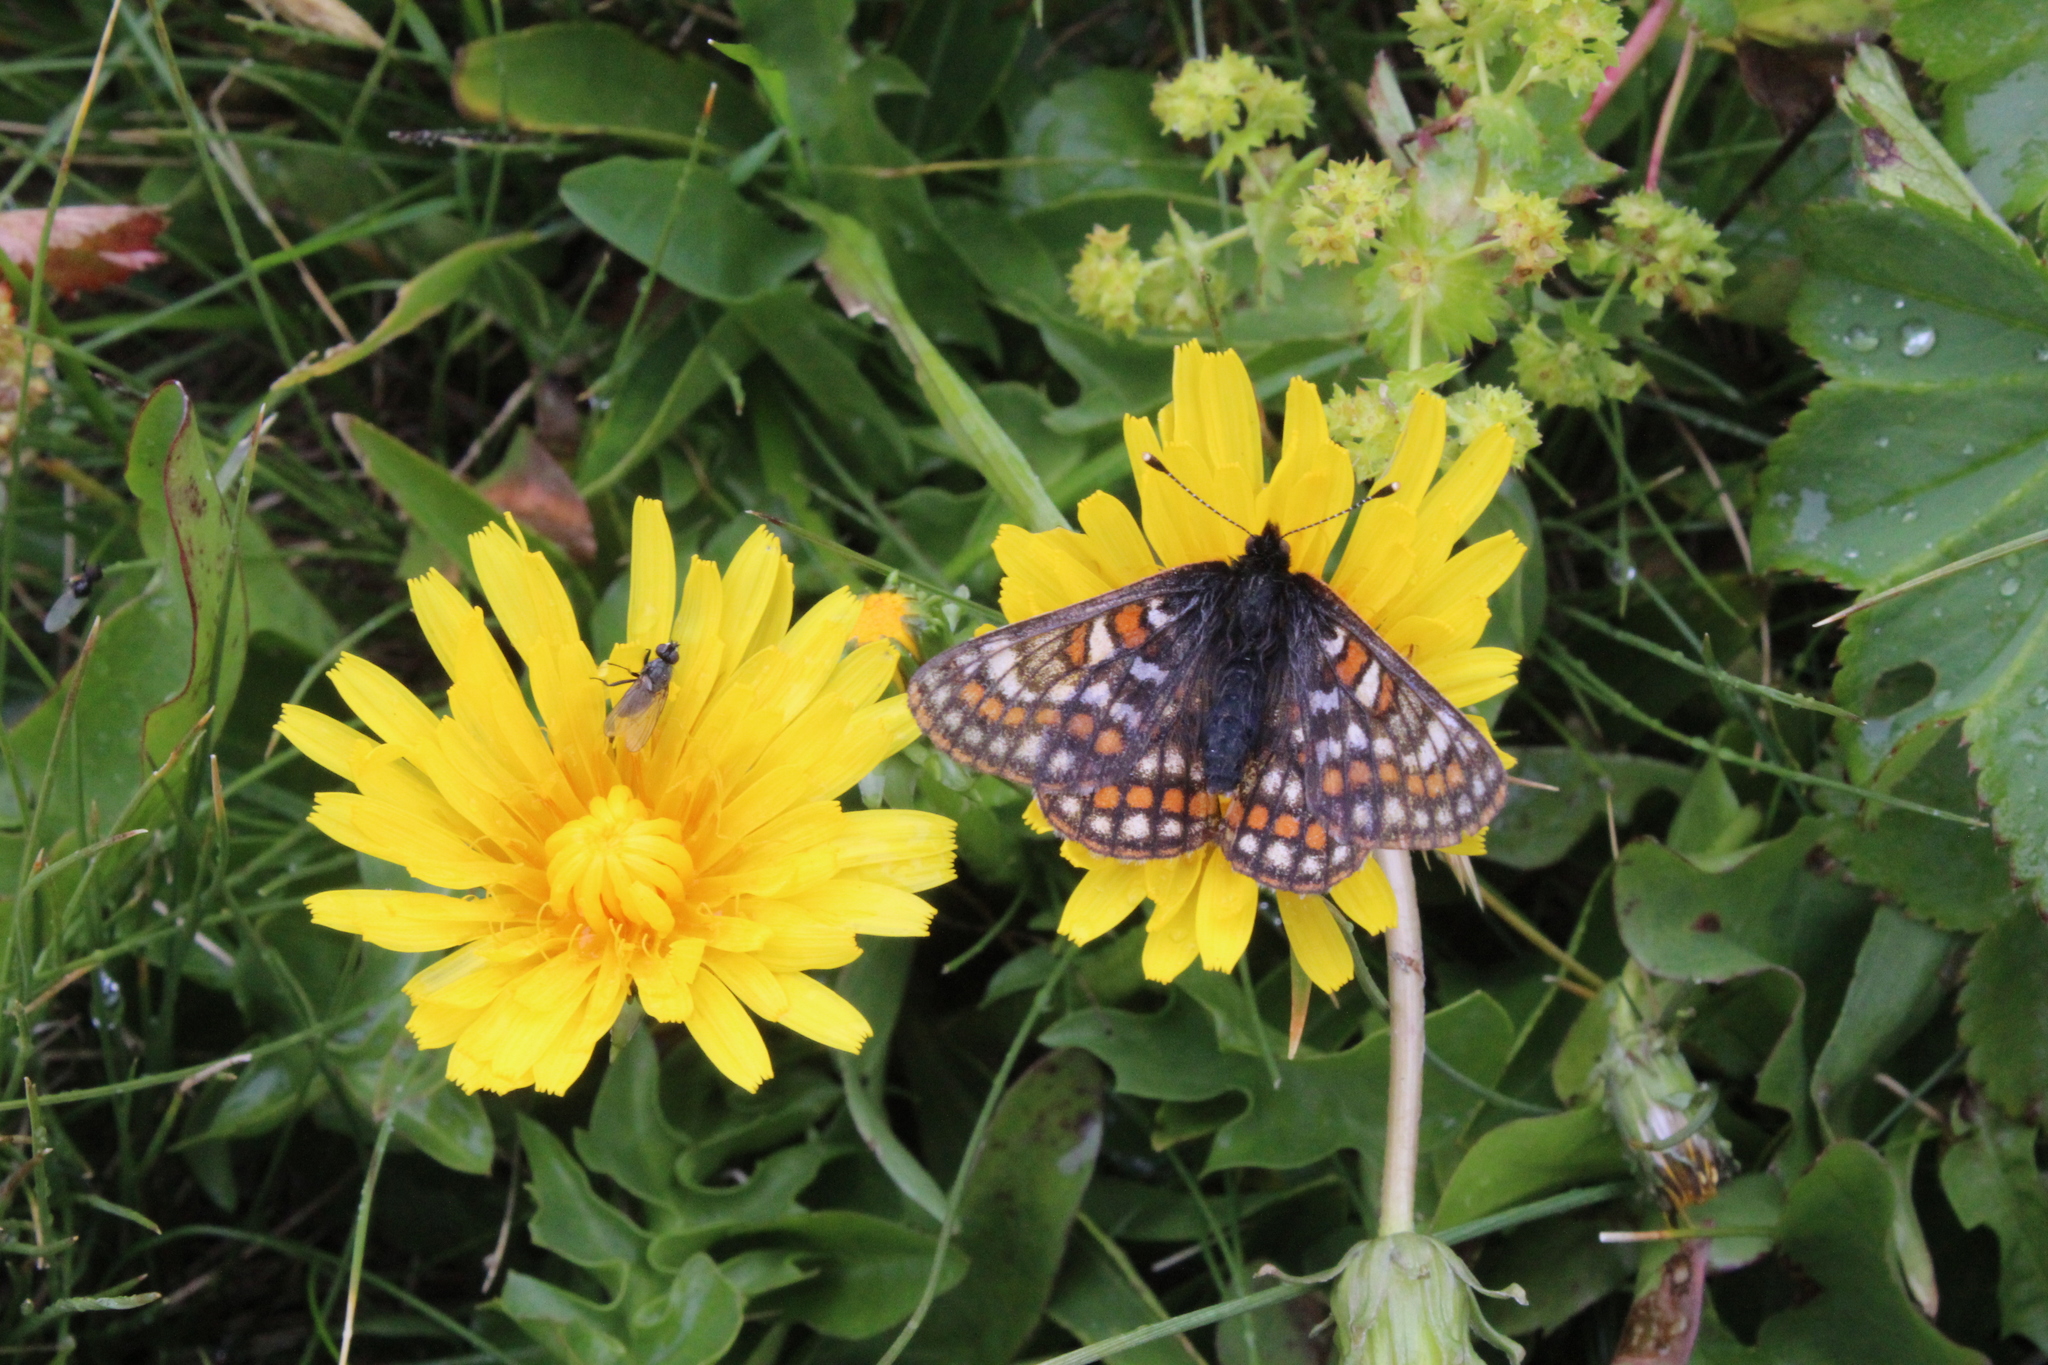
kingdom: Animalia
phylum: Arthropoda
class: Insecta
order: Lepidoptera
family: Nymphalidae
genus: Hypodryas
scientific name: Hypodryas iduna
